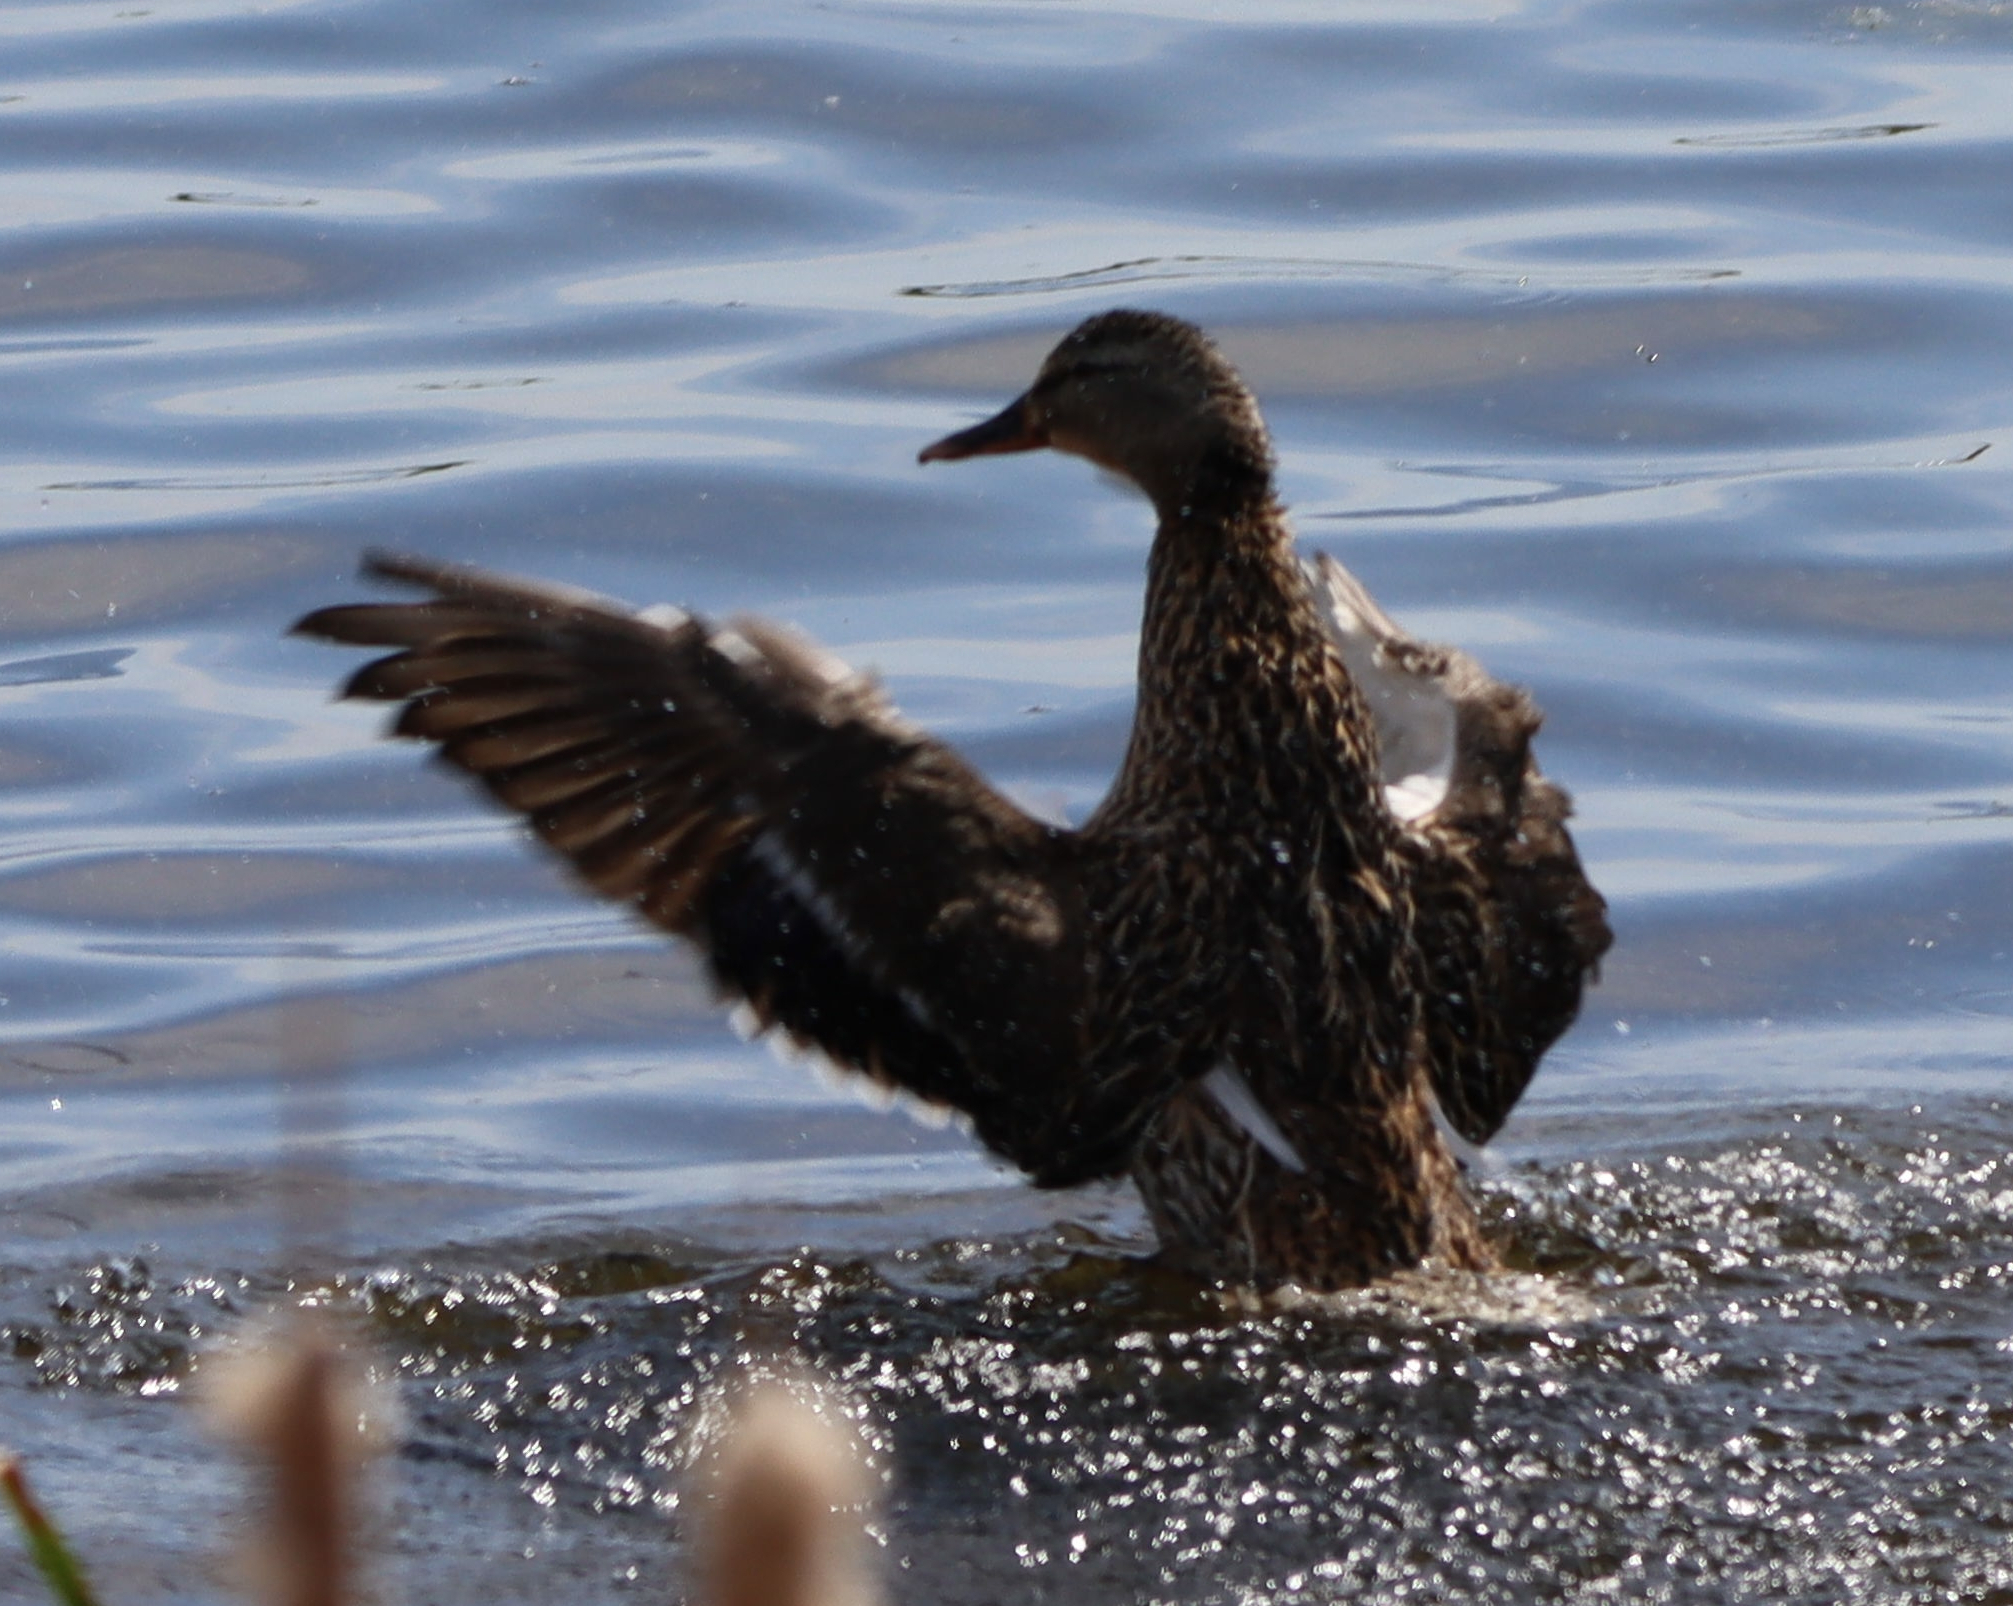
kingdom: Animalia
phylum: Chordata
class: Aves
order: Anseriformes
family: Anatidae
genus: Anas
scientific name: Anas platyrhynchos
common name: Mallard
